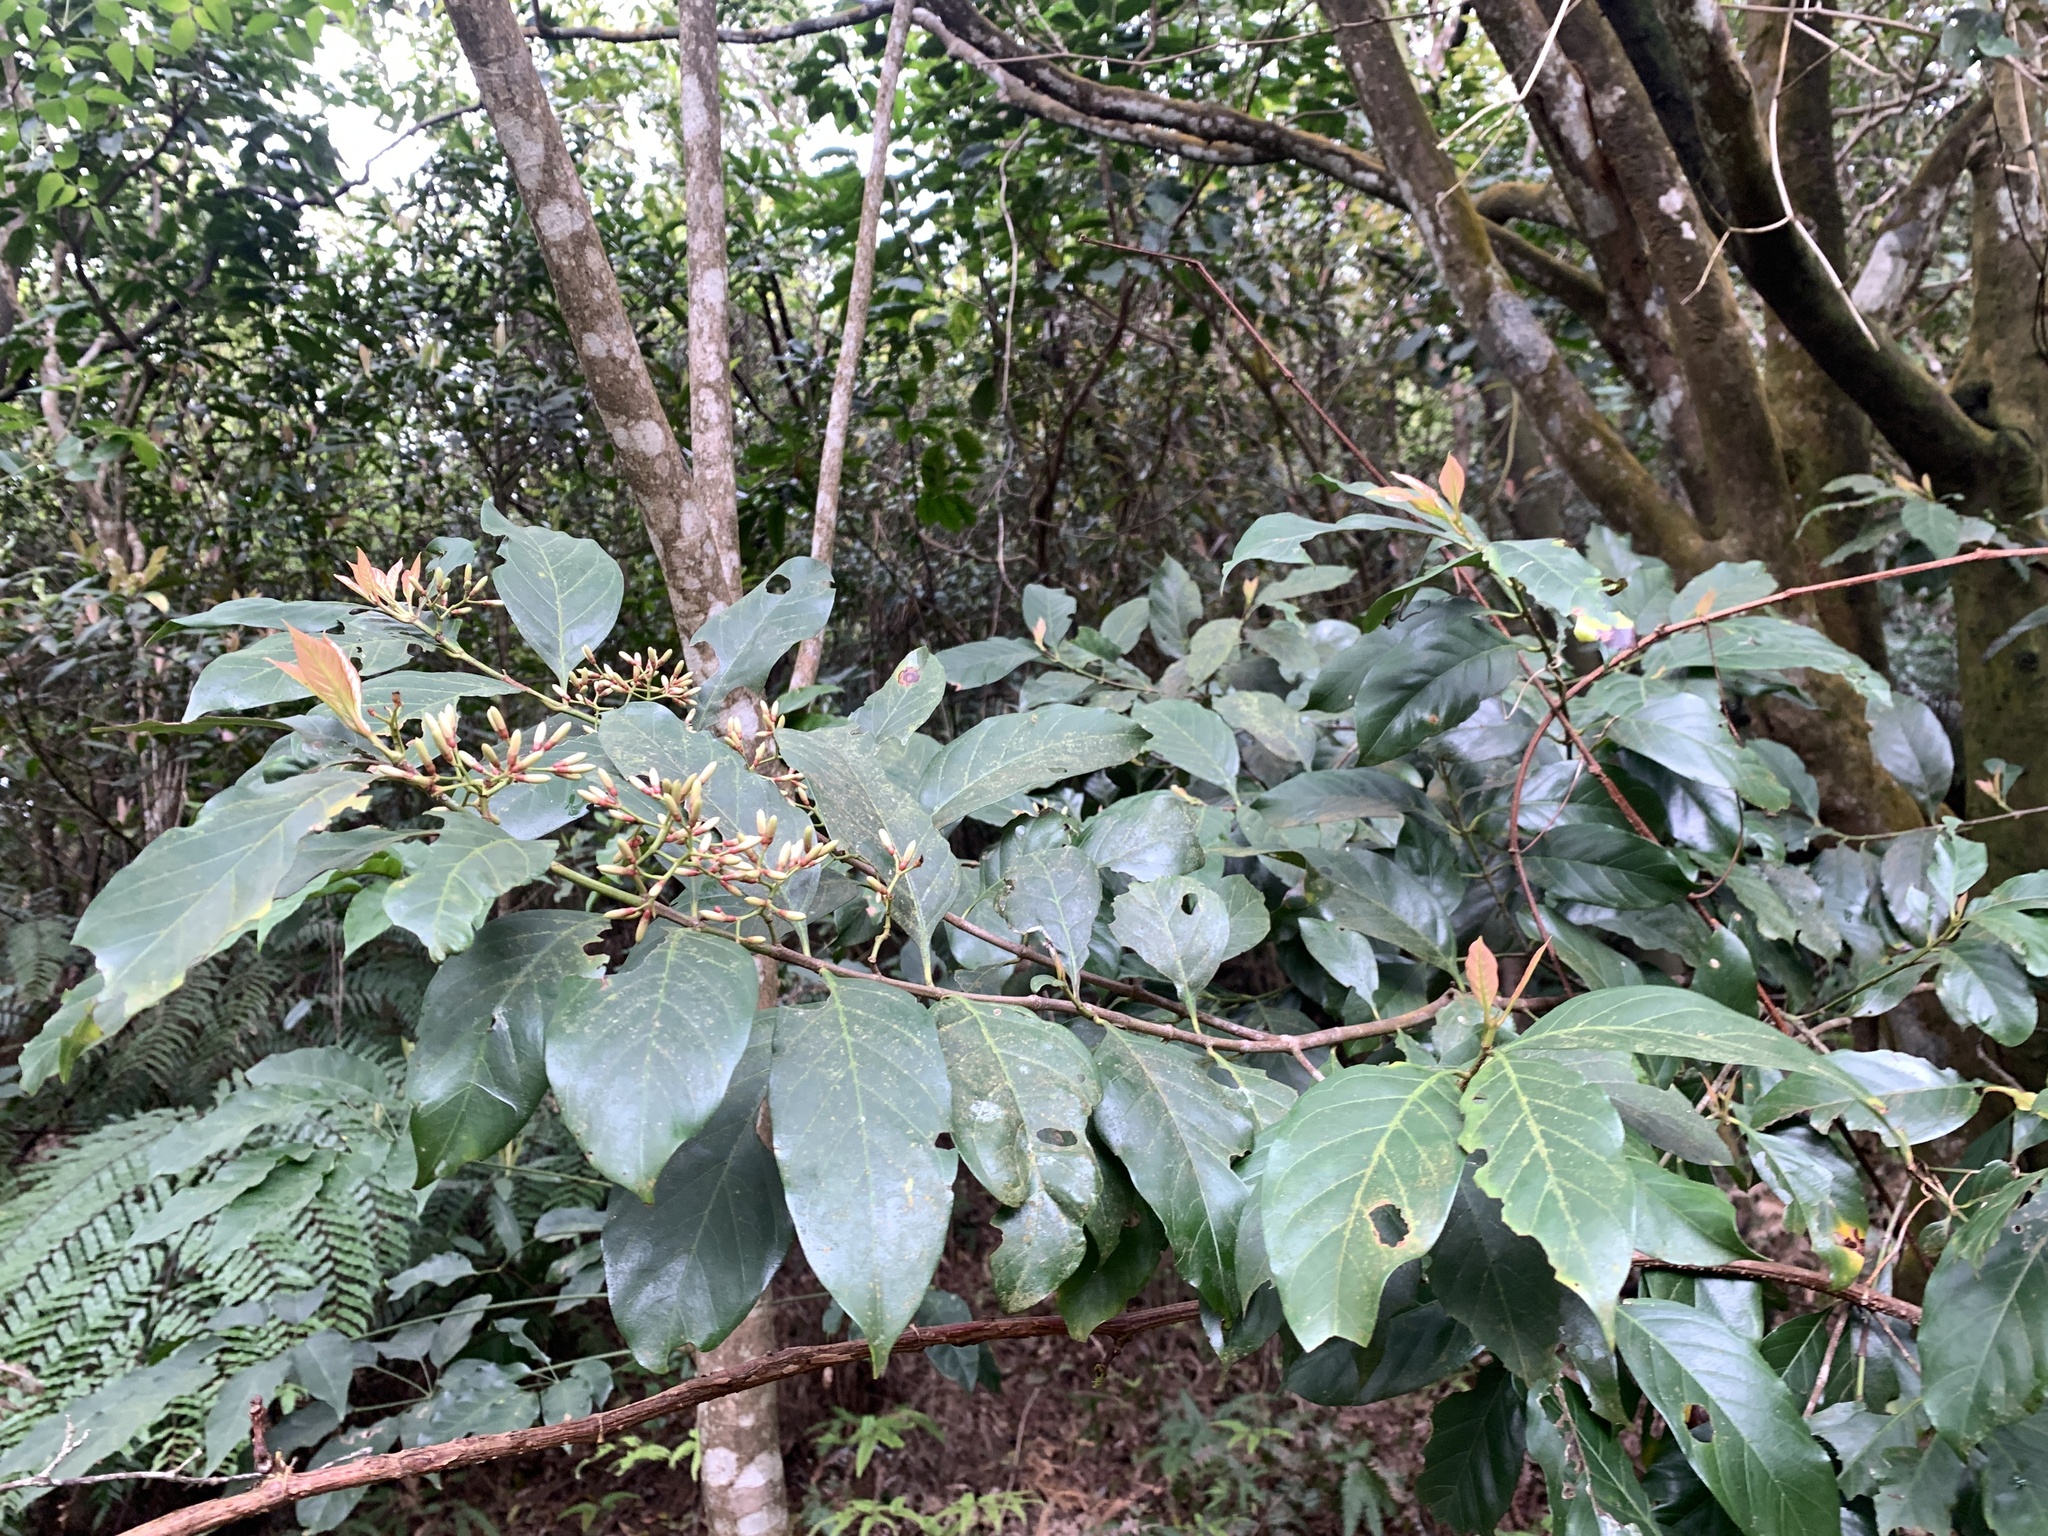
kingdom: Plantae
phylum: Tracheophyta
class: Magnoliopsida
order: Gentianales
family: Rubiaceae
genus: Aidia
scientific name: Aidia cochinchinensis
